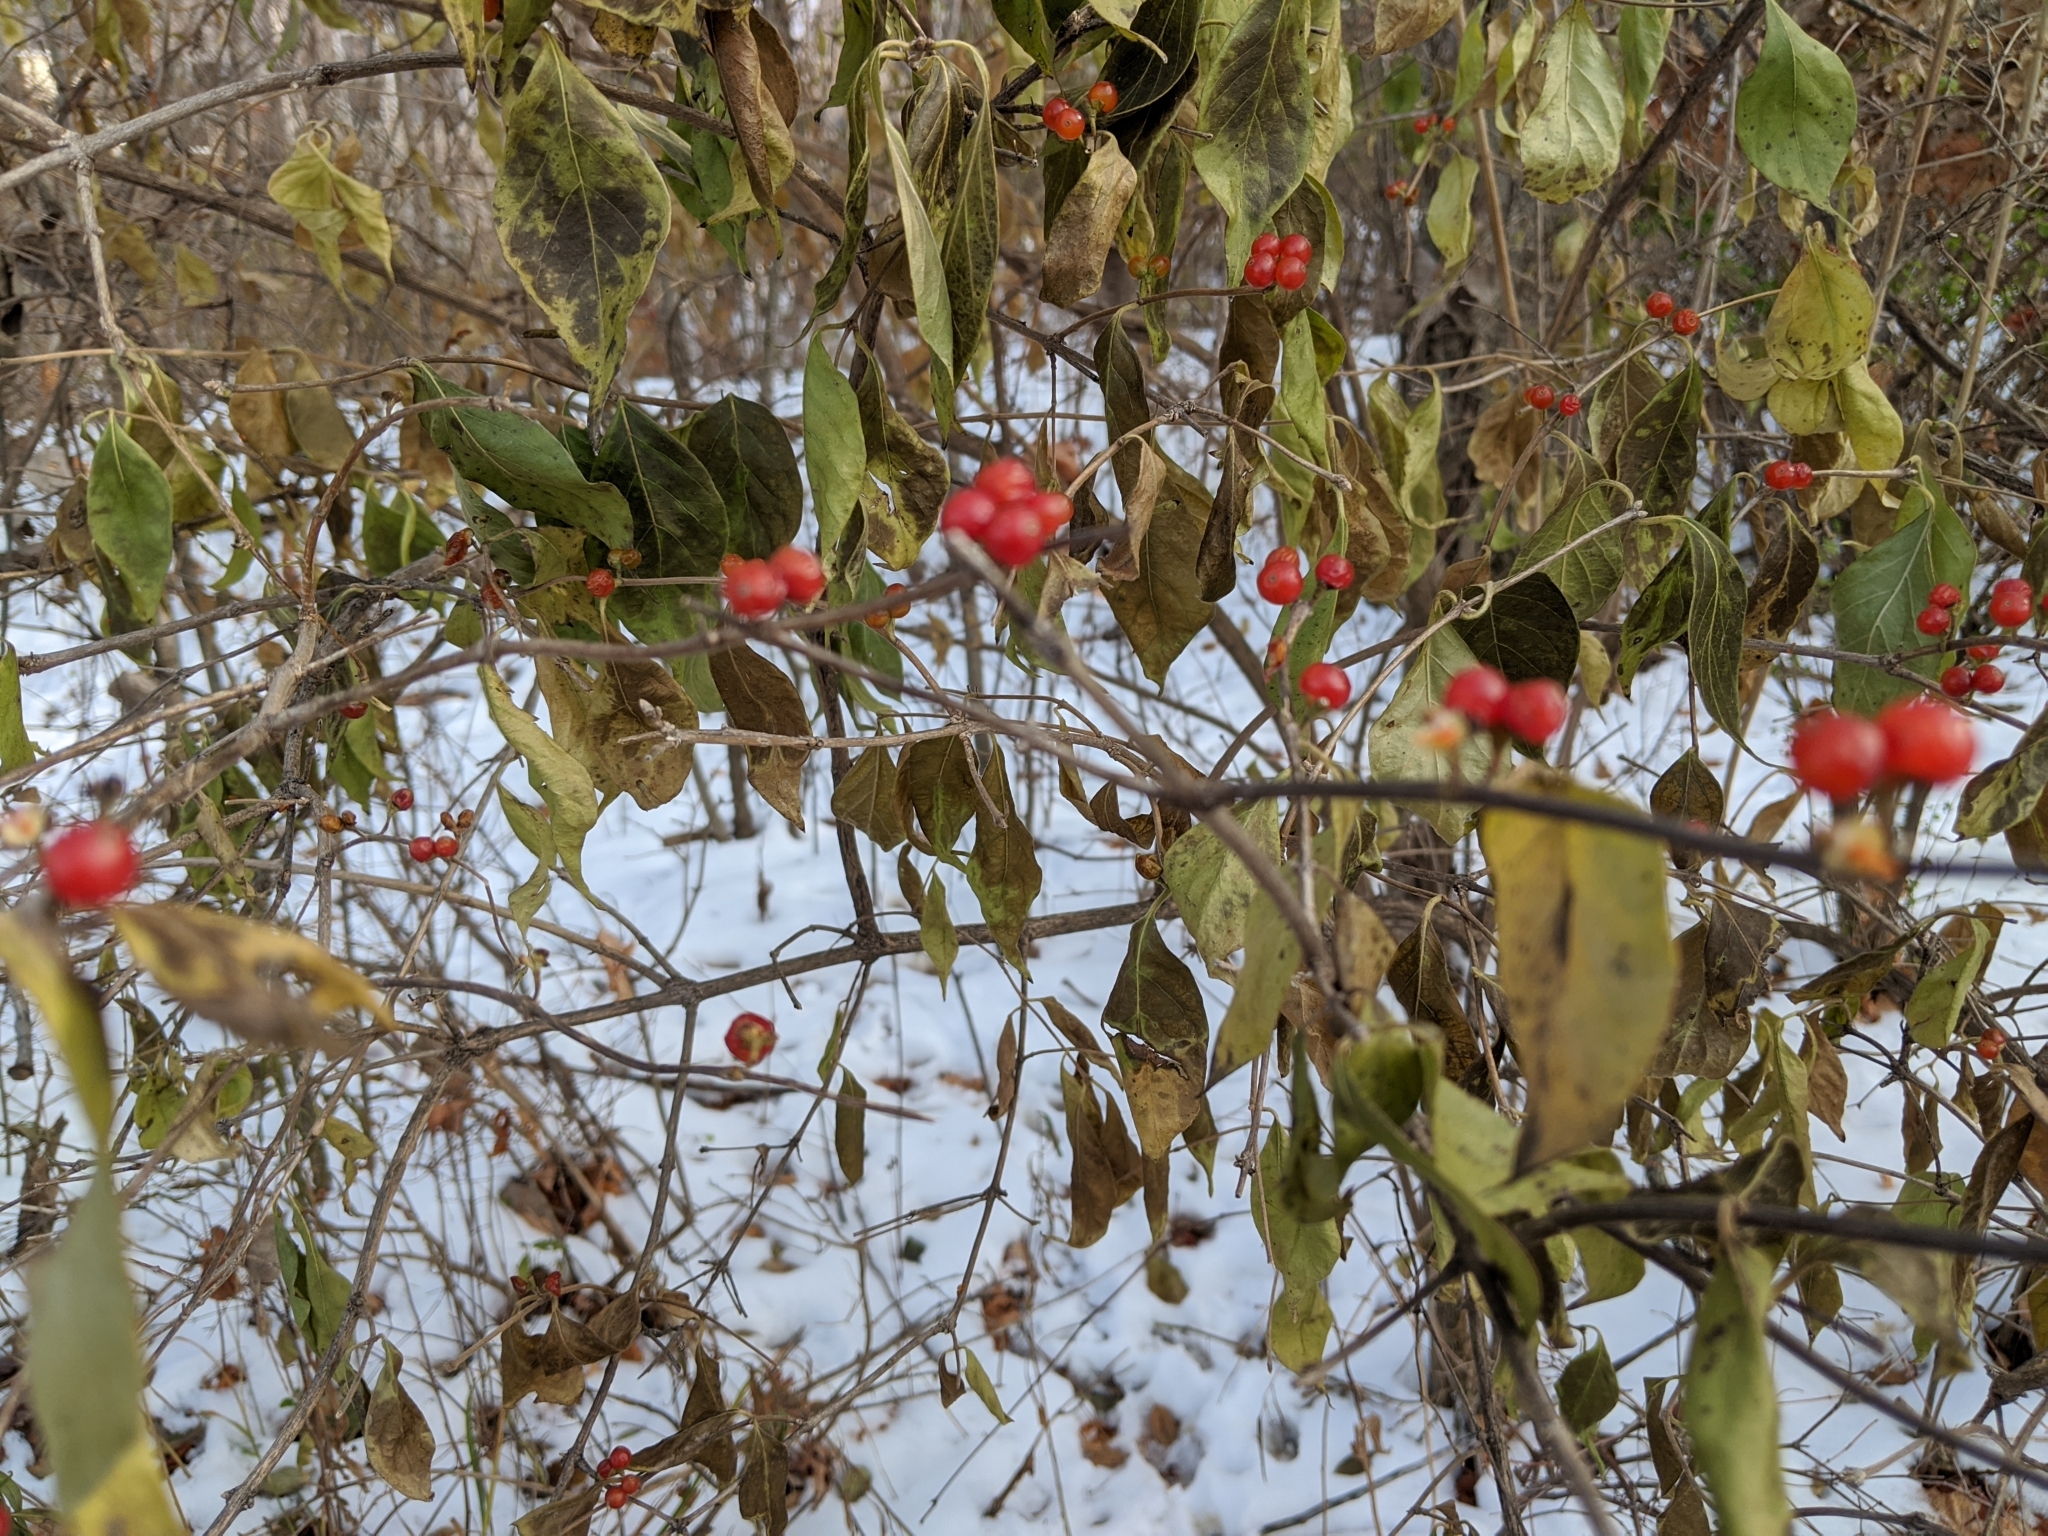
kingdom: Plantae
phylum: Tracheophyta
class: Magnoliopsida
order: Dipsacales
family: Caprifoliaceae
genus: Lonicera
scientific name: Lonicera maackii
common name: Amur honeysuckle
